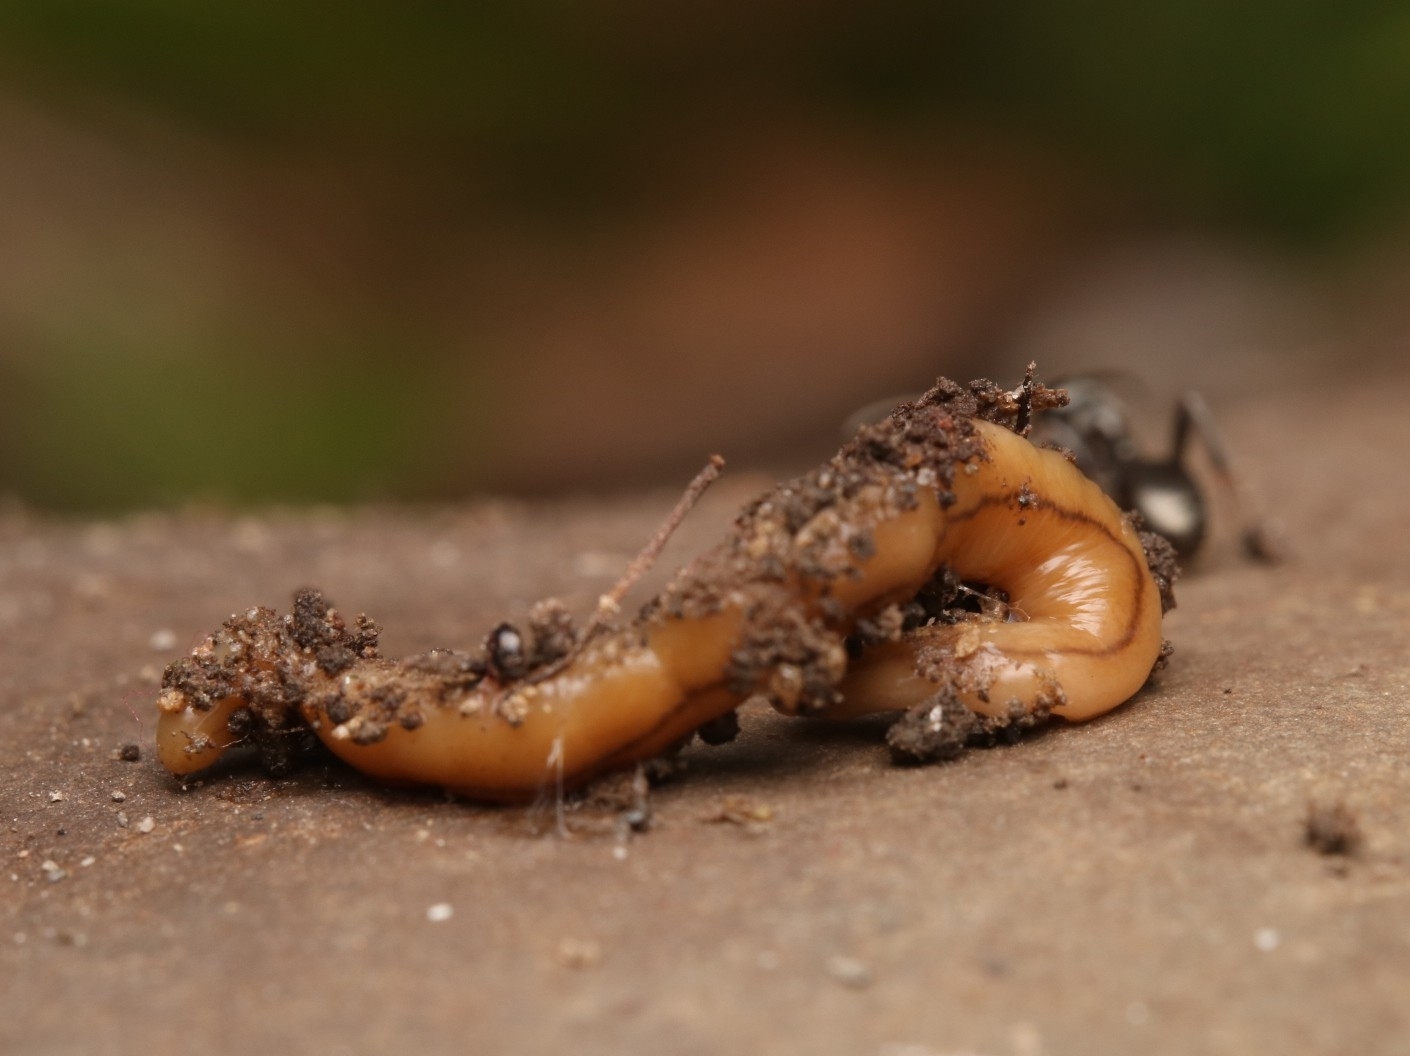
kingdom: Animalia
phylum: Platyhelminthes
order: Tricladida
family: Geoplanidae
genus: Bipalium
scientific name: Bipalium adventitium
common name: Land planarian
